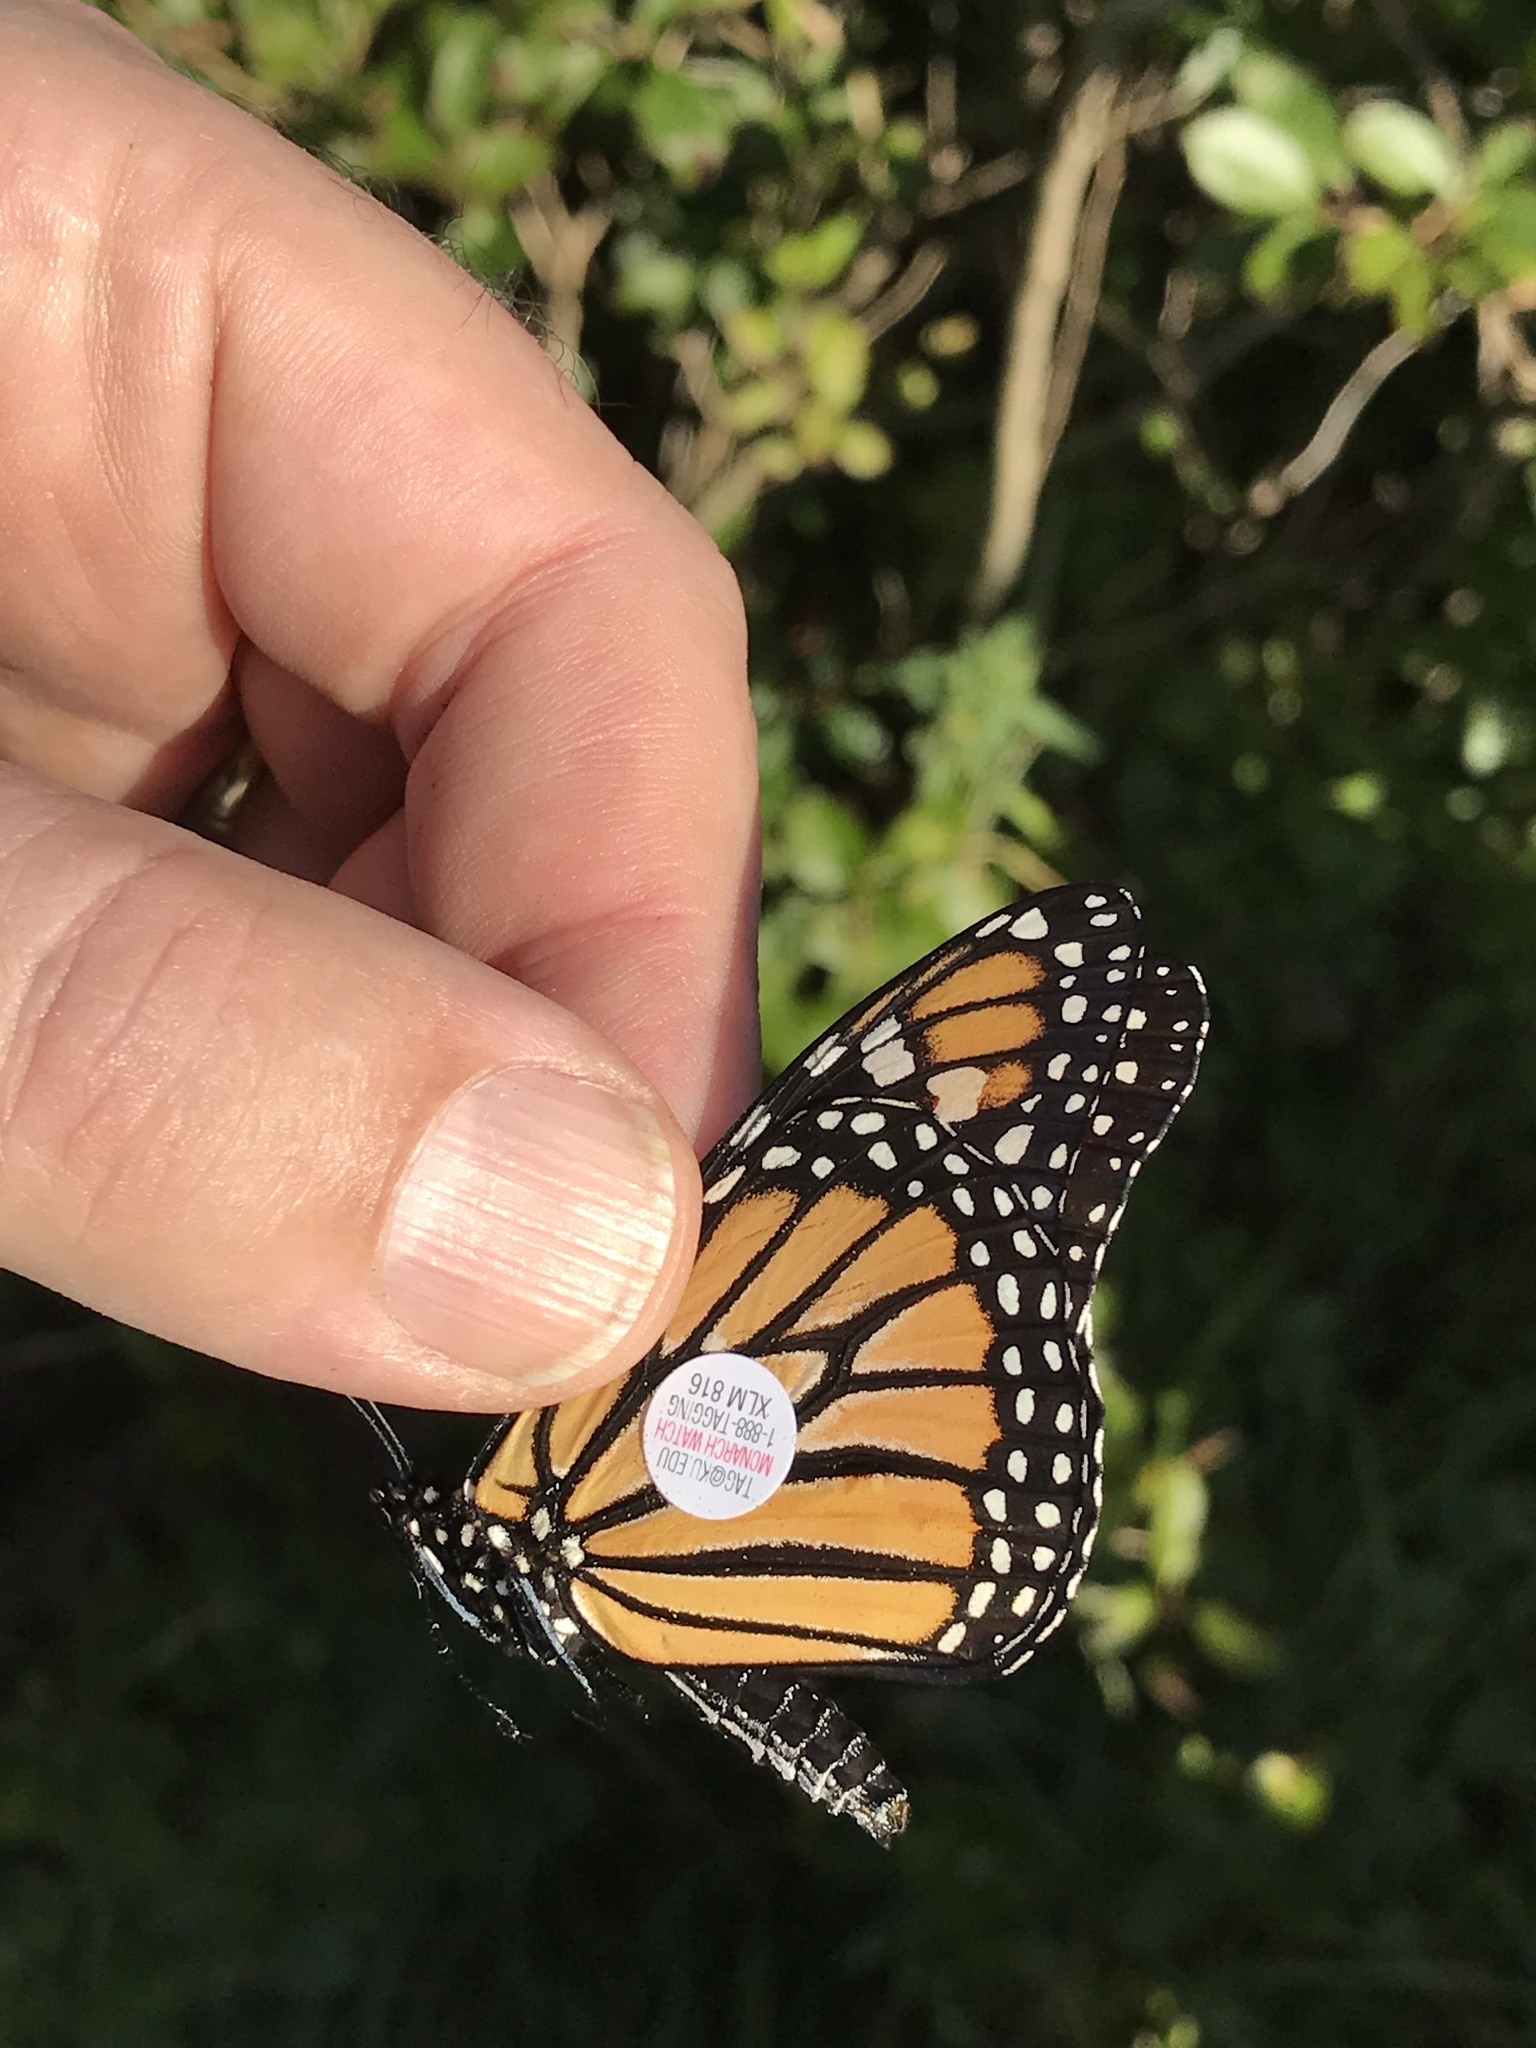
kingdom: Animalia
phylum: Arthropoda
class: Insecta
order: Lepidoptera
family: Nymphalidae
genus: Danaus
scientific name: Danaus plexippus
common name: Monarch
